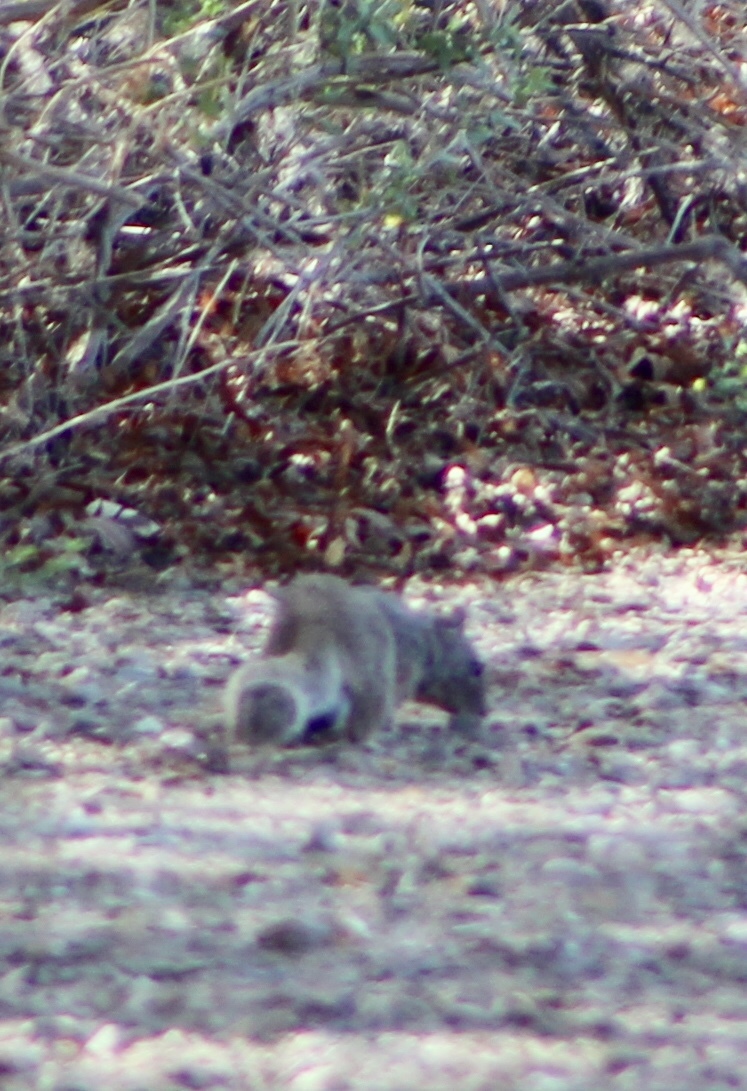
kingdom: Animalia
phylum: Chordata
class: Mammalia
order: Rodentia
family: Sciuridae
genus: Otospermophilus
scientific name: Otospermophilus variegatus
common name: Rock squirrel
